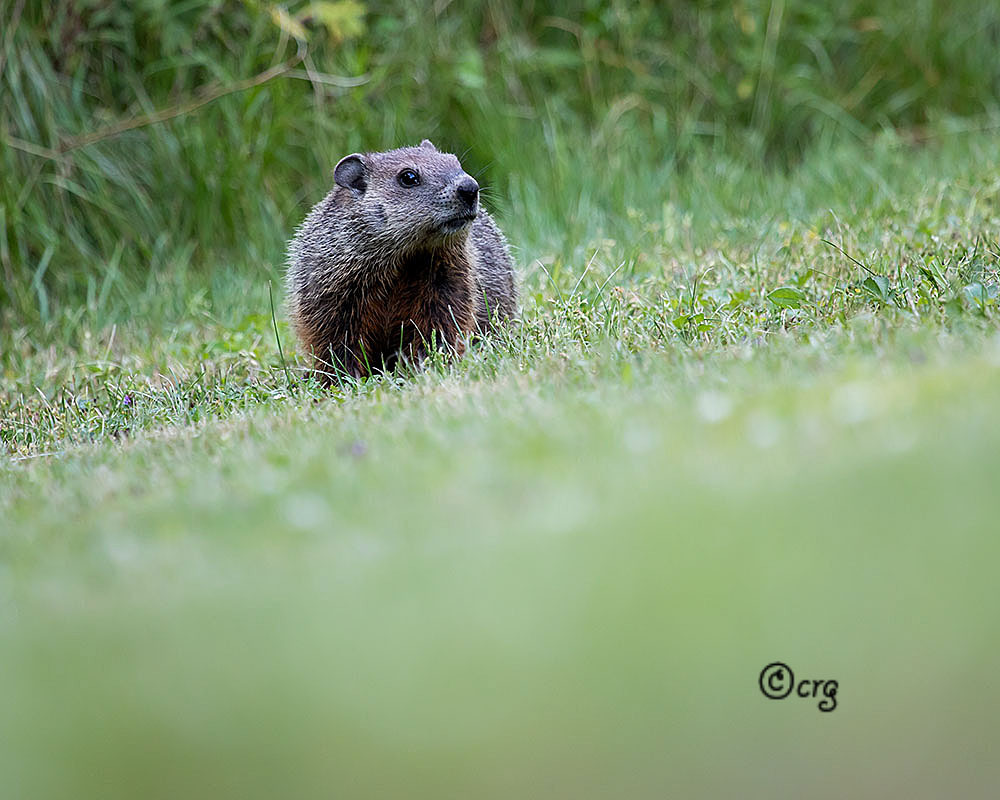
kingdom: Animalia
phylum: Chordata
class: Mammalia
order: Rodentia
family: Sciuridae
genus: Marmota
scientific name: Marmota monax
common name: Groundhog
